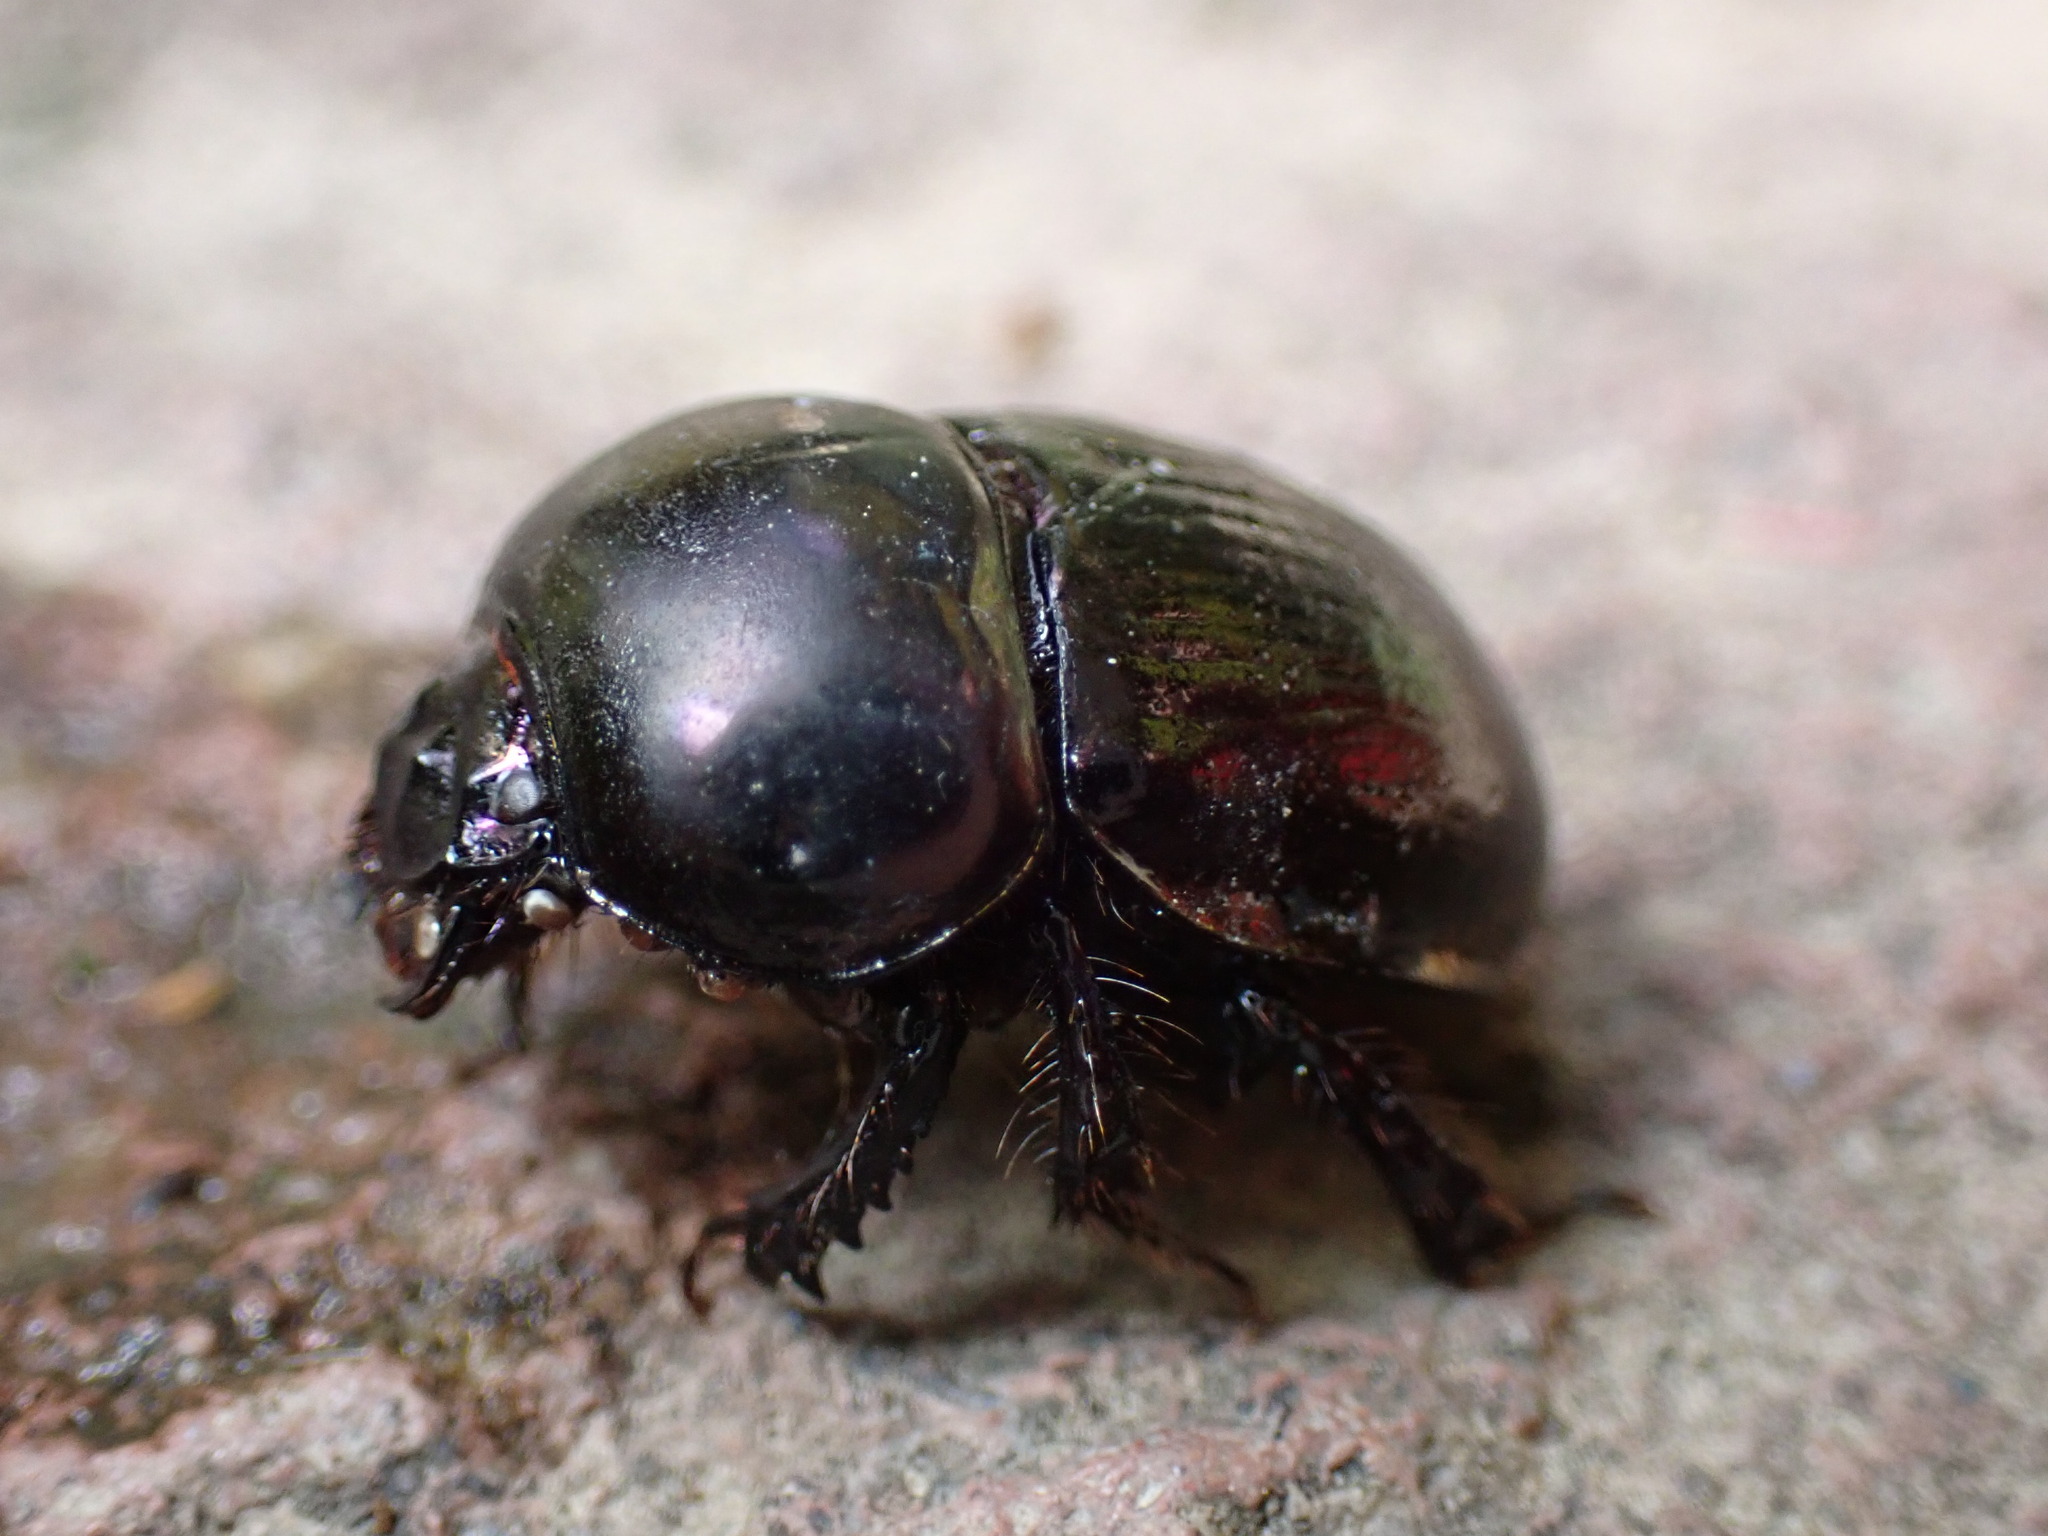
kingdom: Animalia
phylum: Arthropoda
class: Insecta
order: Coleoptera
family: Geotrupidae
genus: Phelotrupes
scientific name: Phelotrupes laevistriatus
